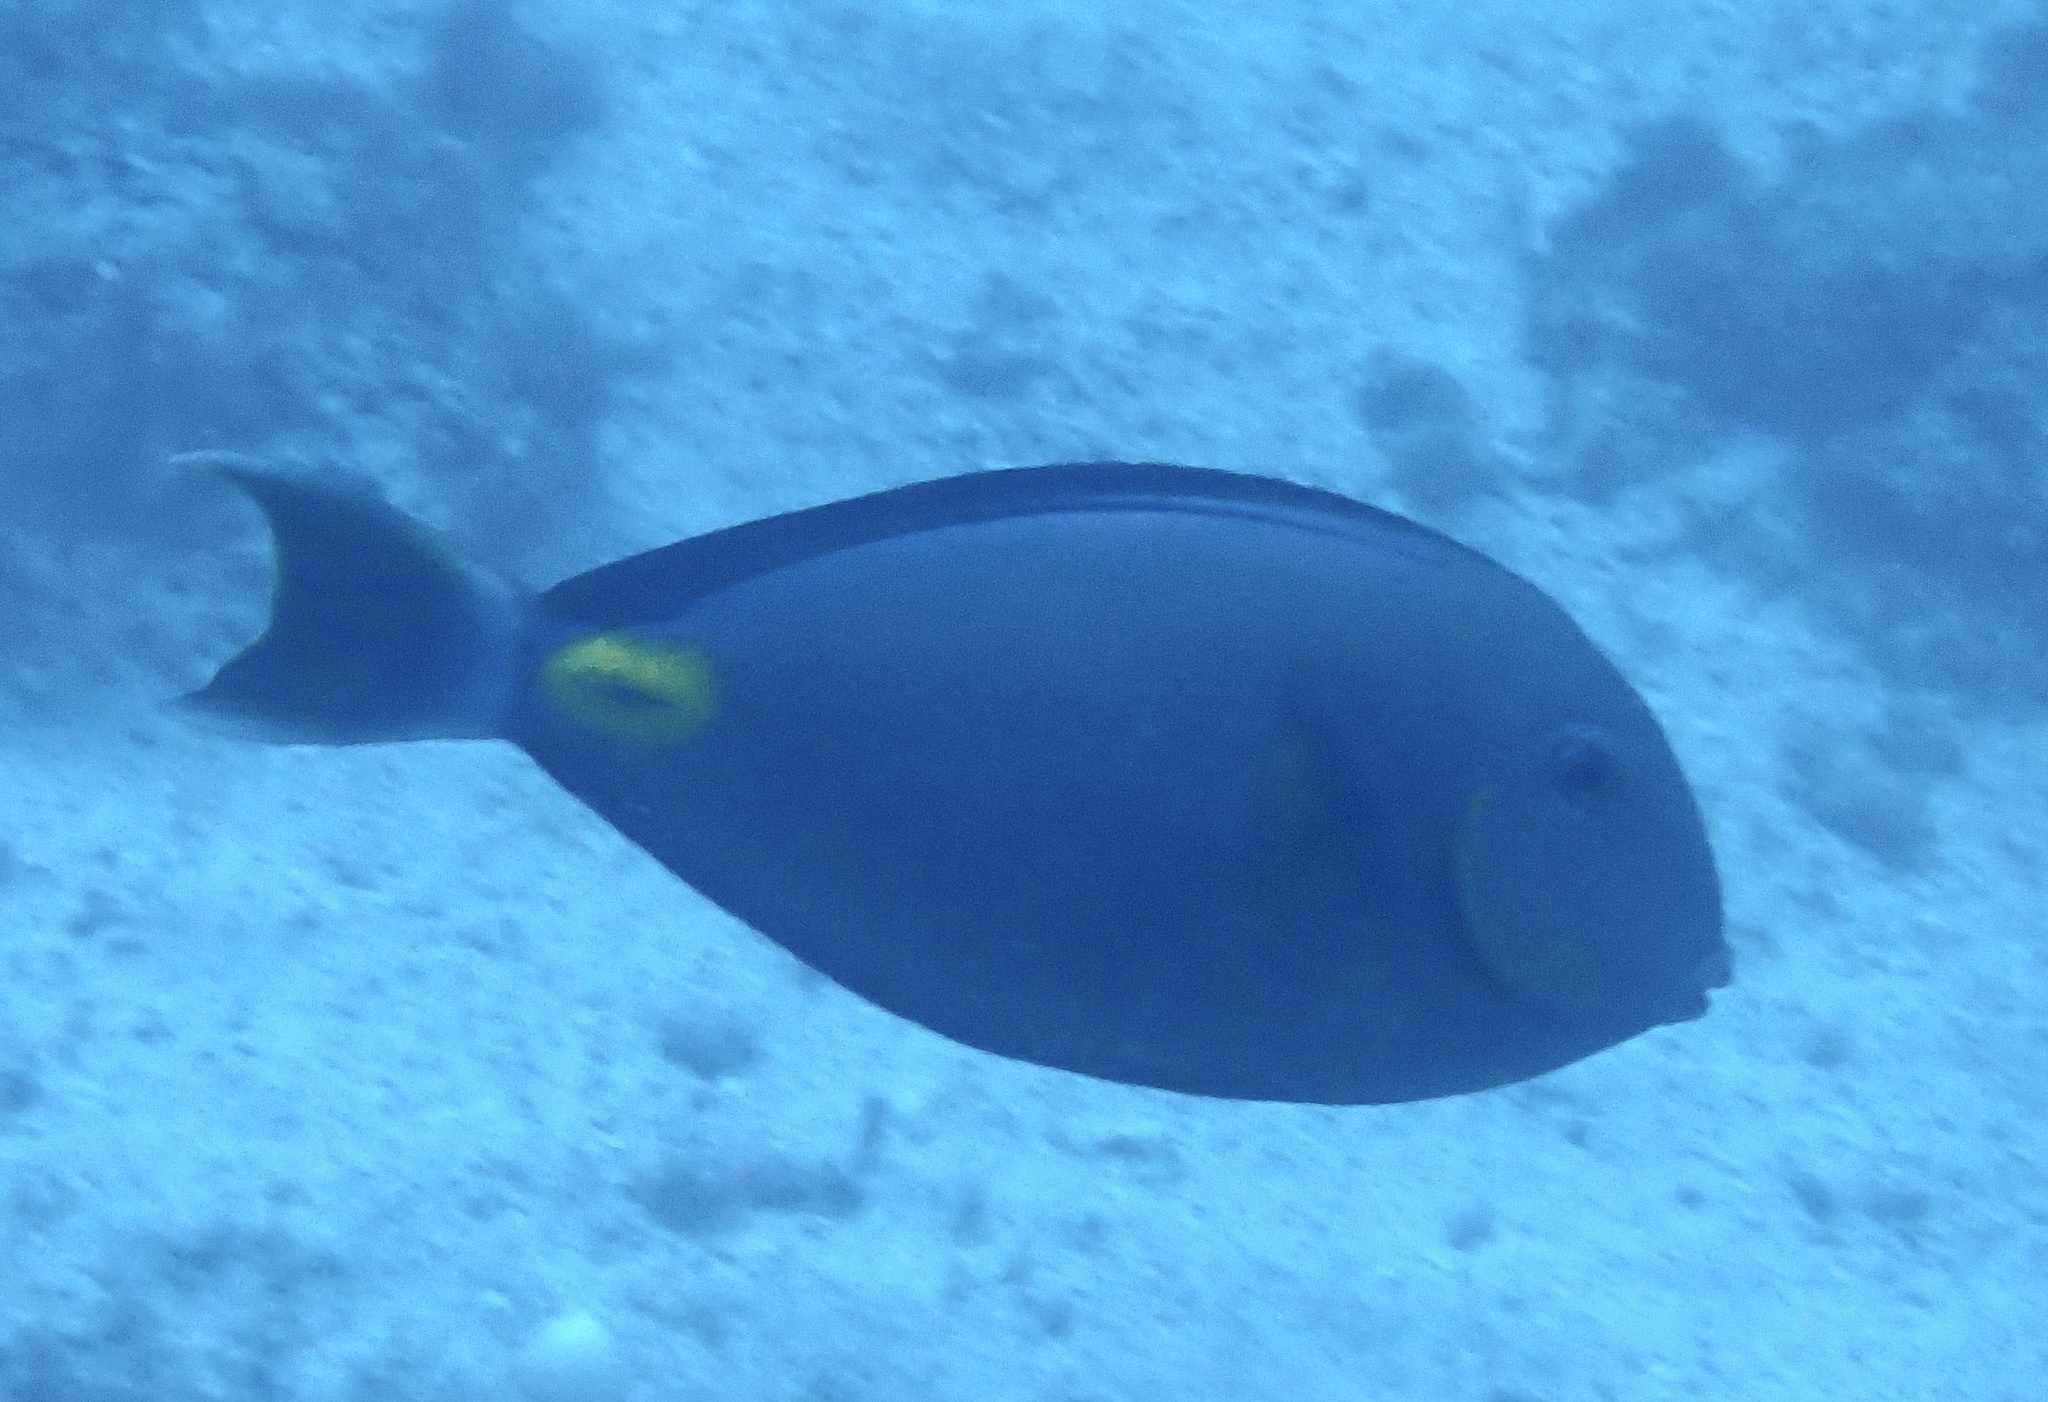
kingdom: Animalia
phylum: Chordata
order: Perciformes
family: Acanthuridae
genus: Acanthurus
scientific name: Acanthurus monroviae
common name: Monrovia surgeonfish
